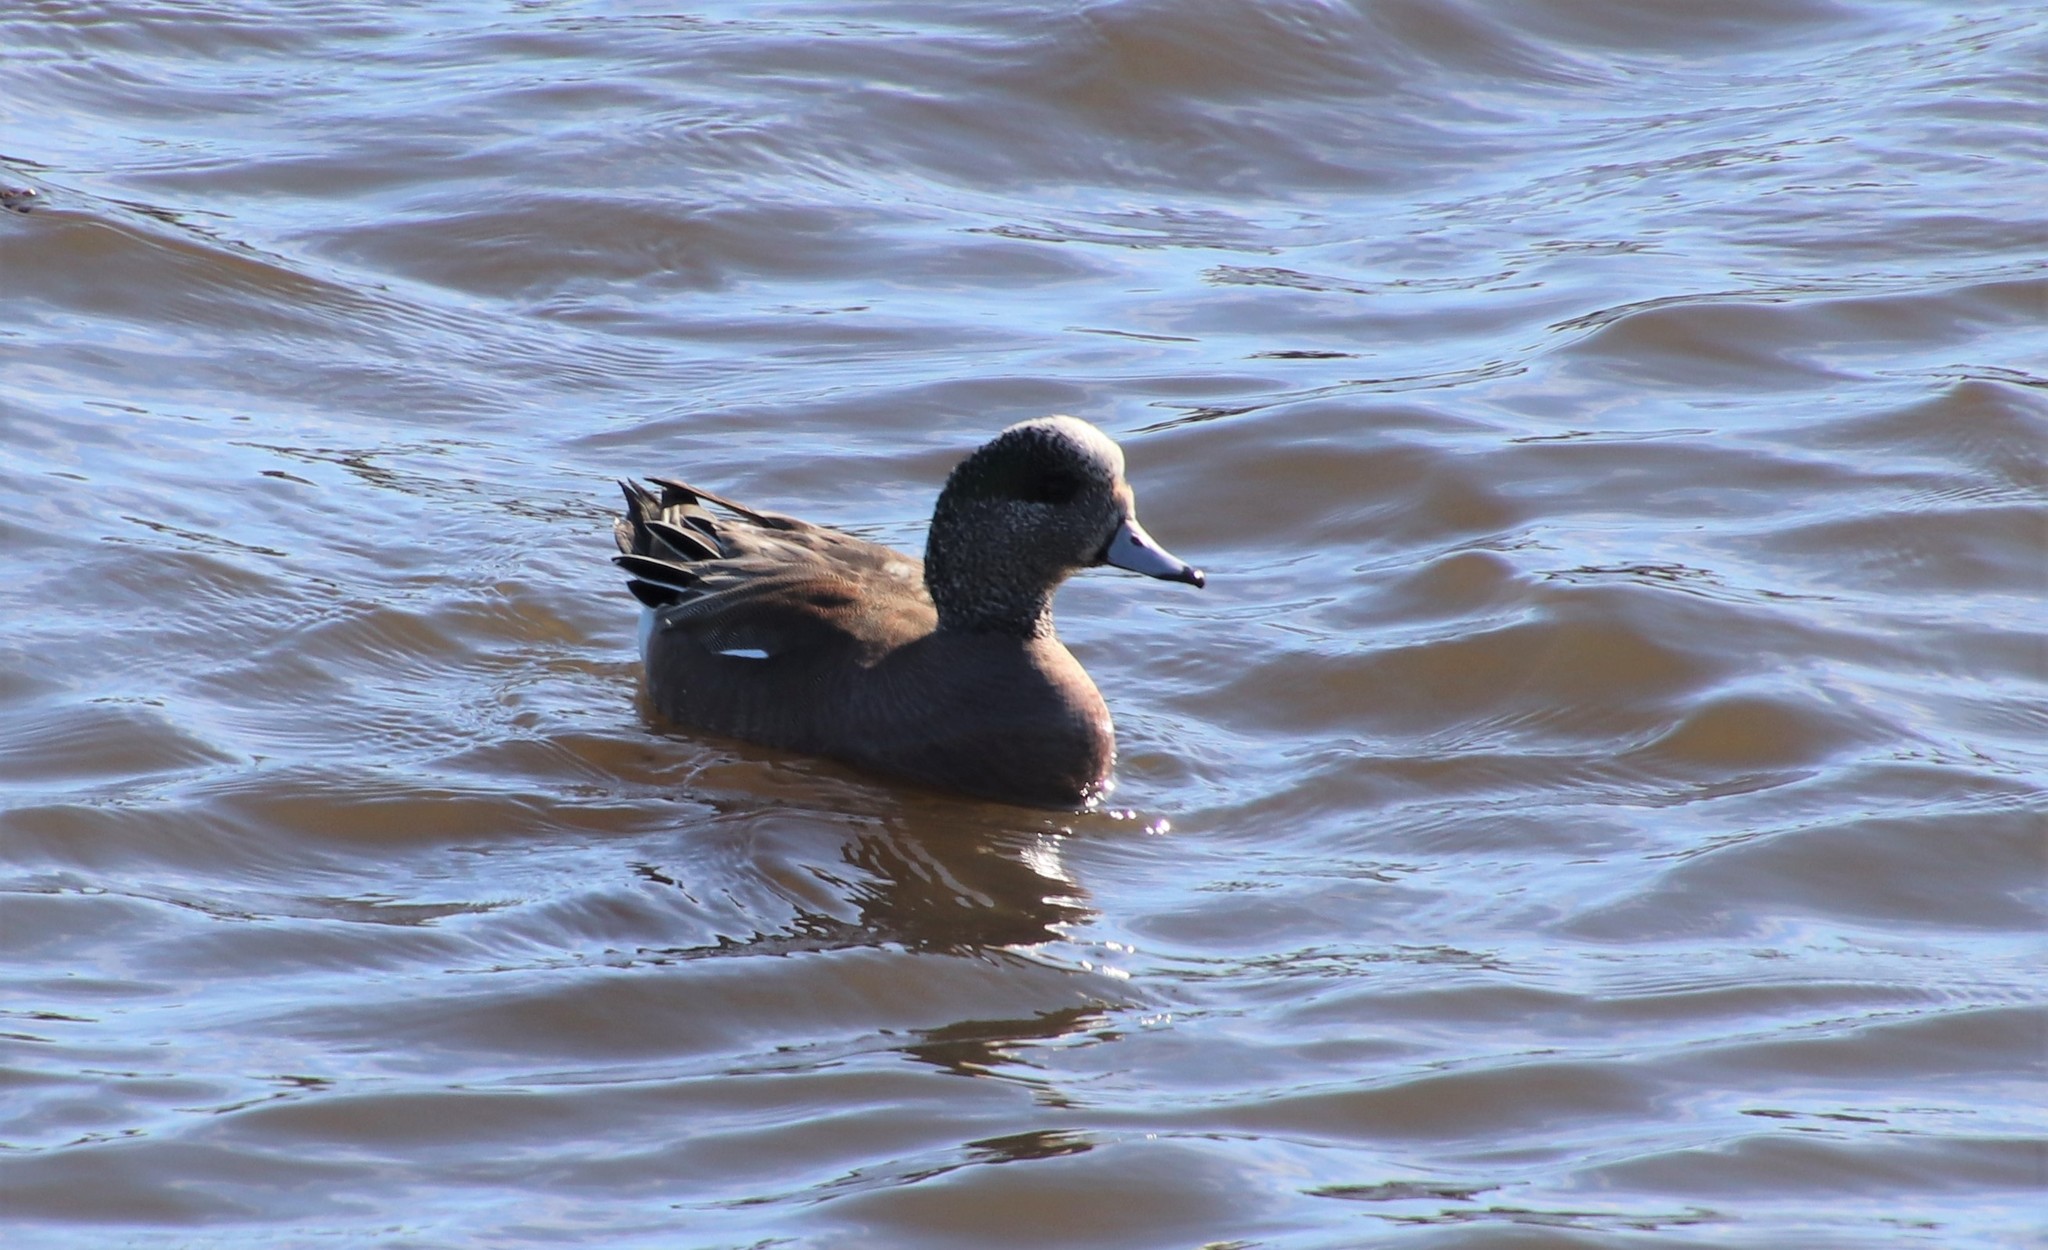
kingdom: Animalia
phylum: Chordata
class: Aves
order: Anseriformes
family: Anatidae
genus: Mareca
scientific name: Mareca americana
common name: American wigeon
